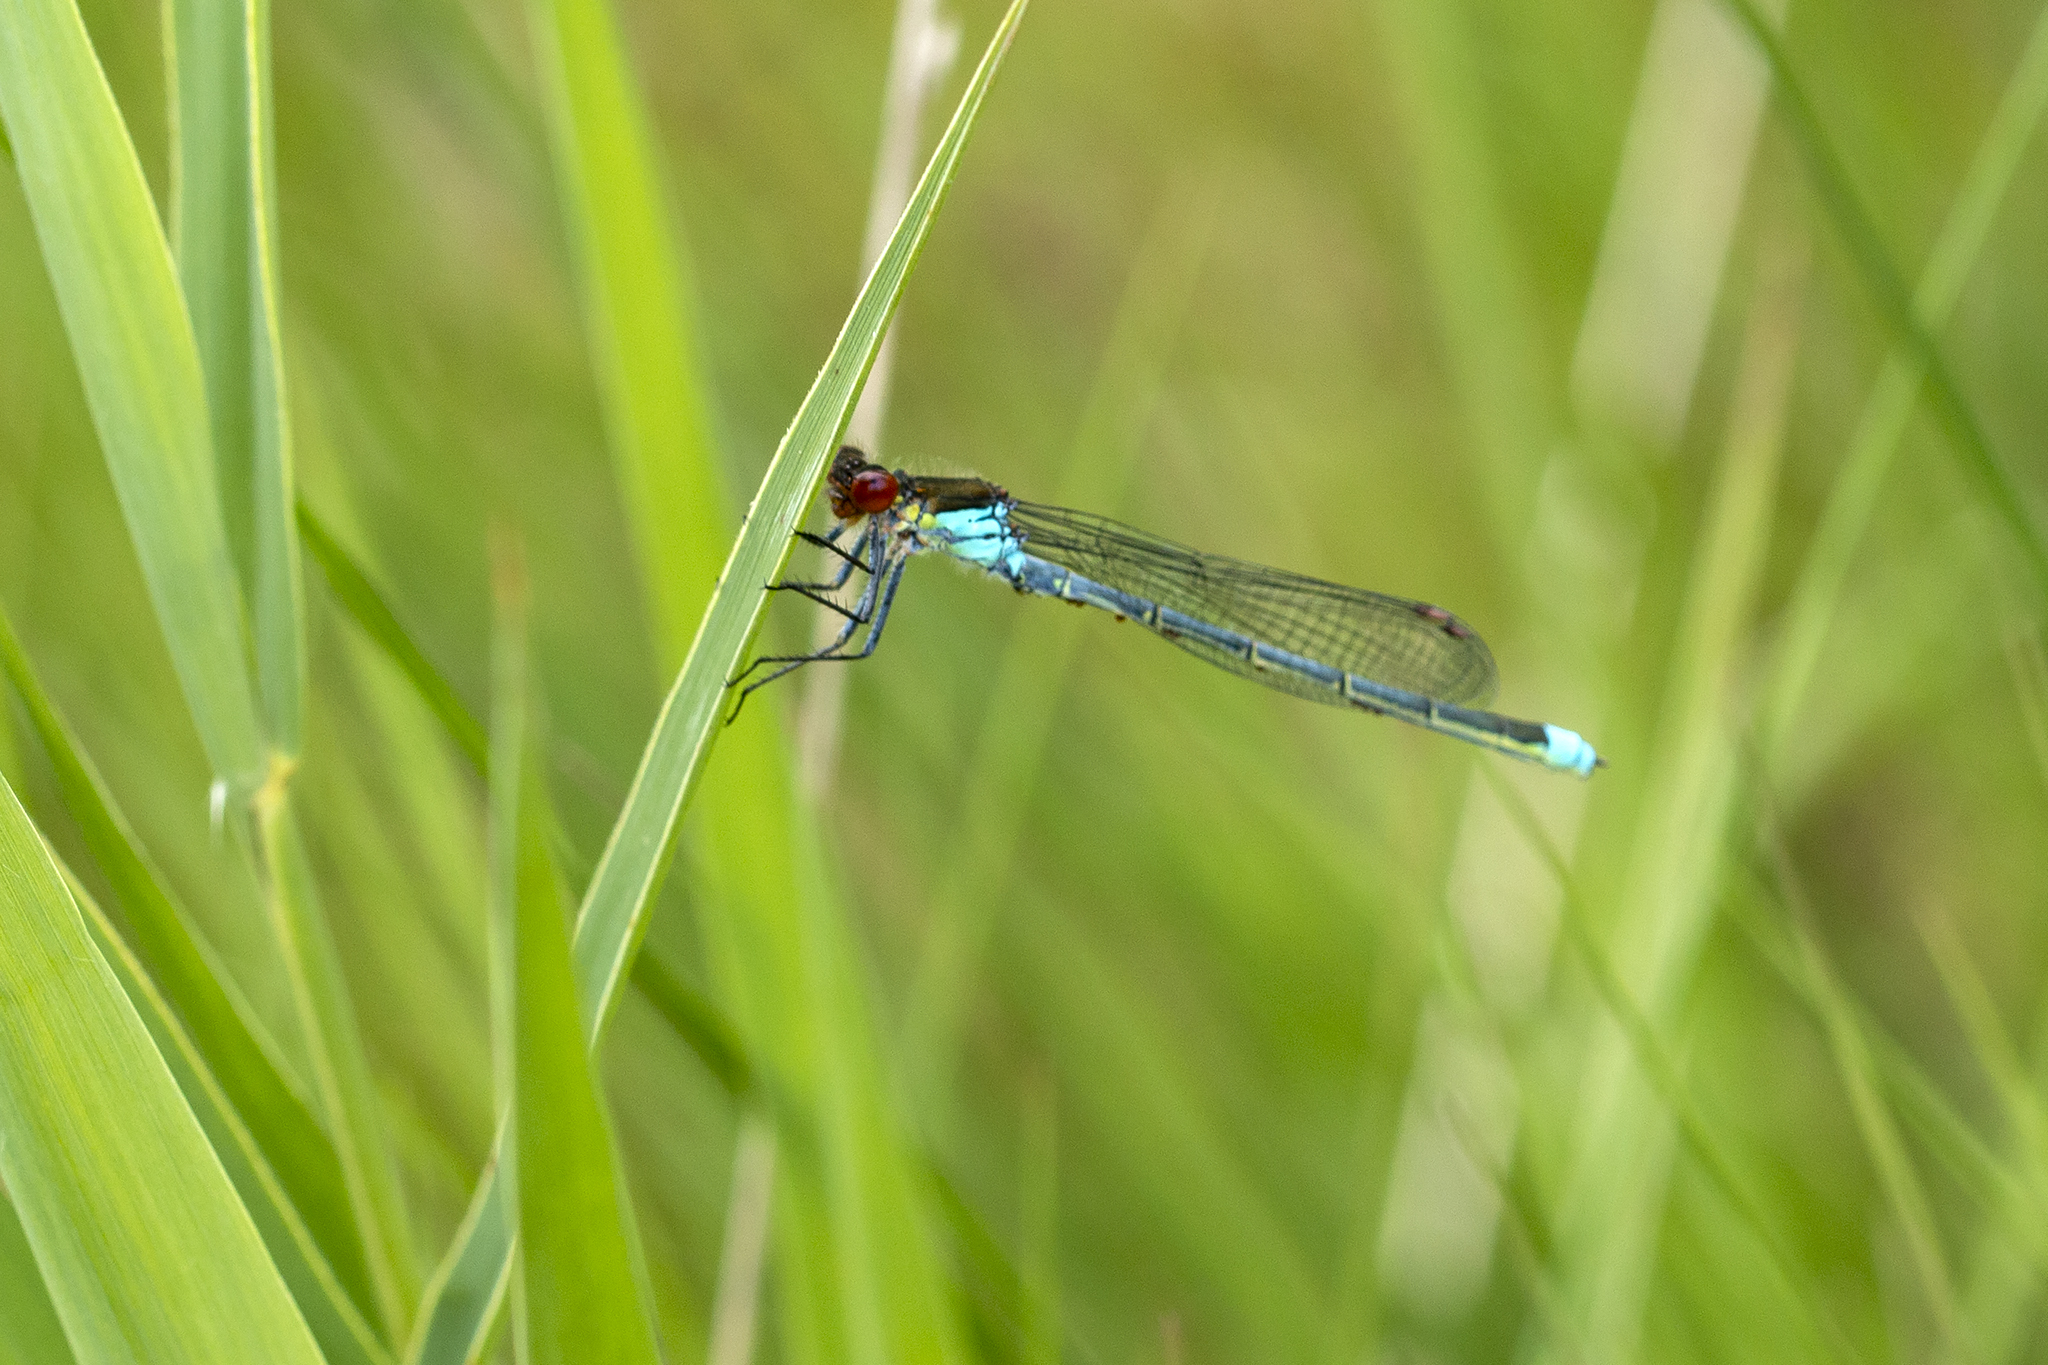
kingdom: Animalia
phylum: Arthropoda
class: Insecta
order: Odonata
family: Coenagrionidae
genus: Erythromma
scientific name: Erythromma najas
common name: Red-eyed damselfly
